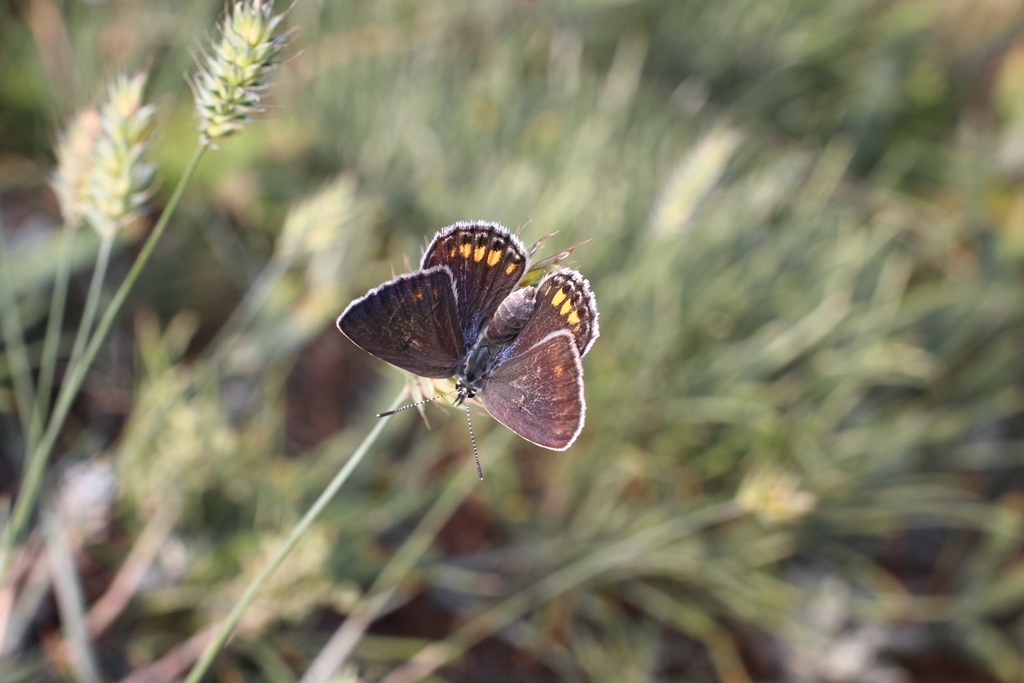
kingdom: Animalia
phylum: Arthropoda
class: Insecta
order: Lepidoptera
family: Lycaenidae
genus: Kretania
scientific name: Kretania eurypilus
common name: Eastern brown argus
